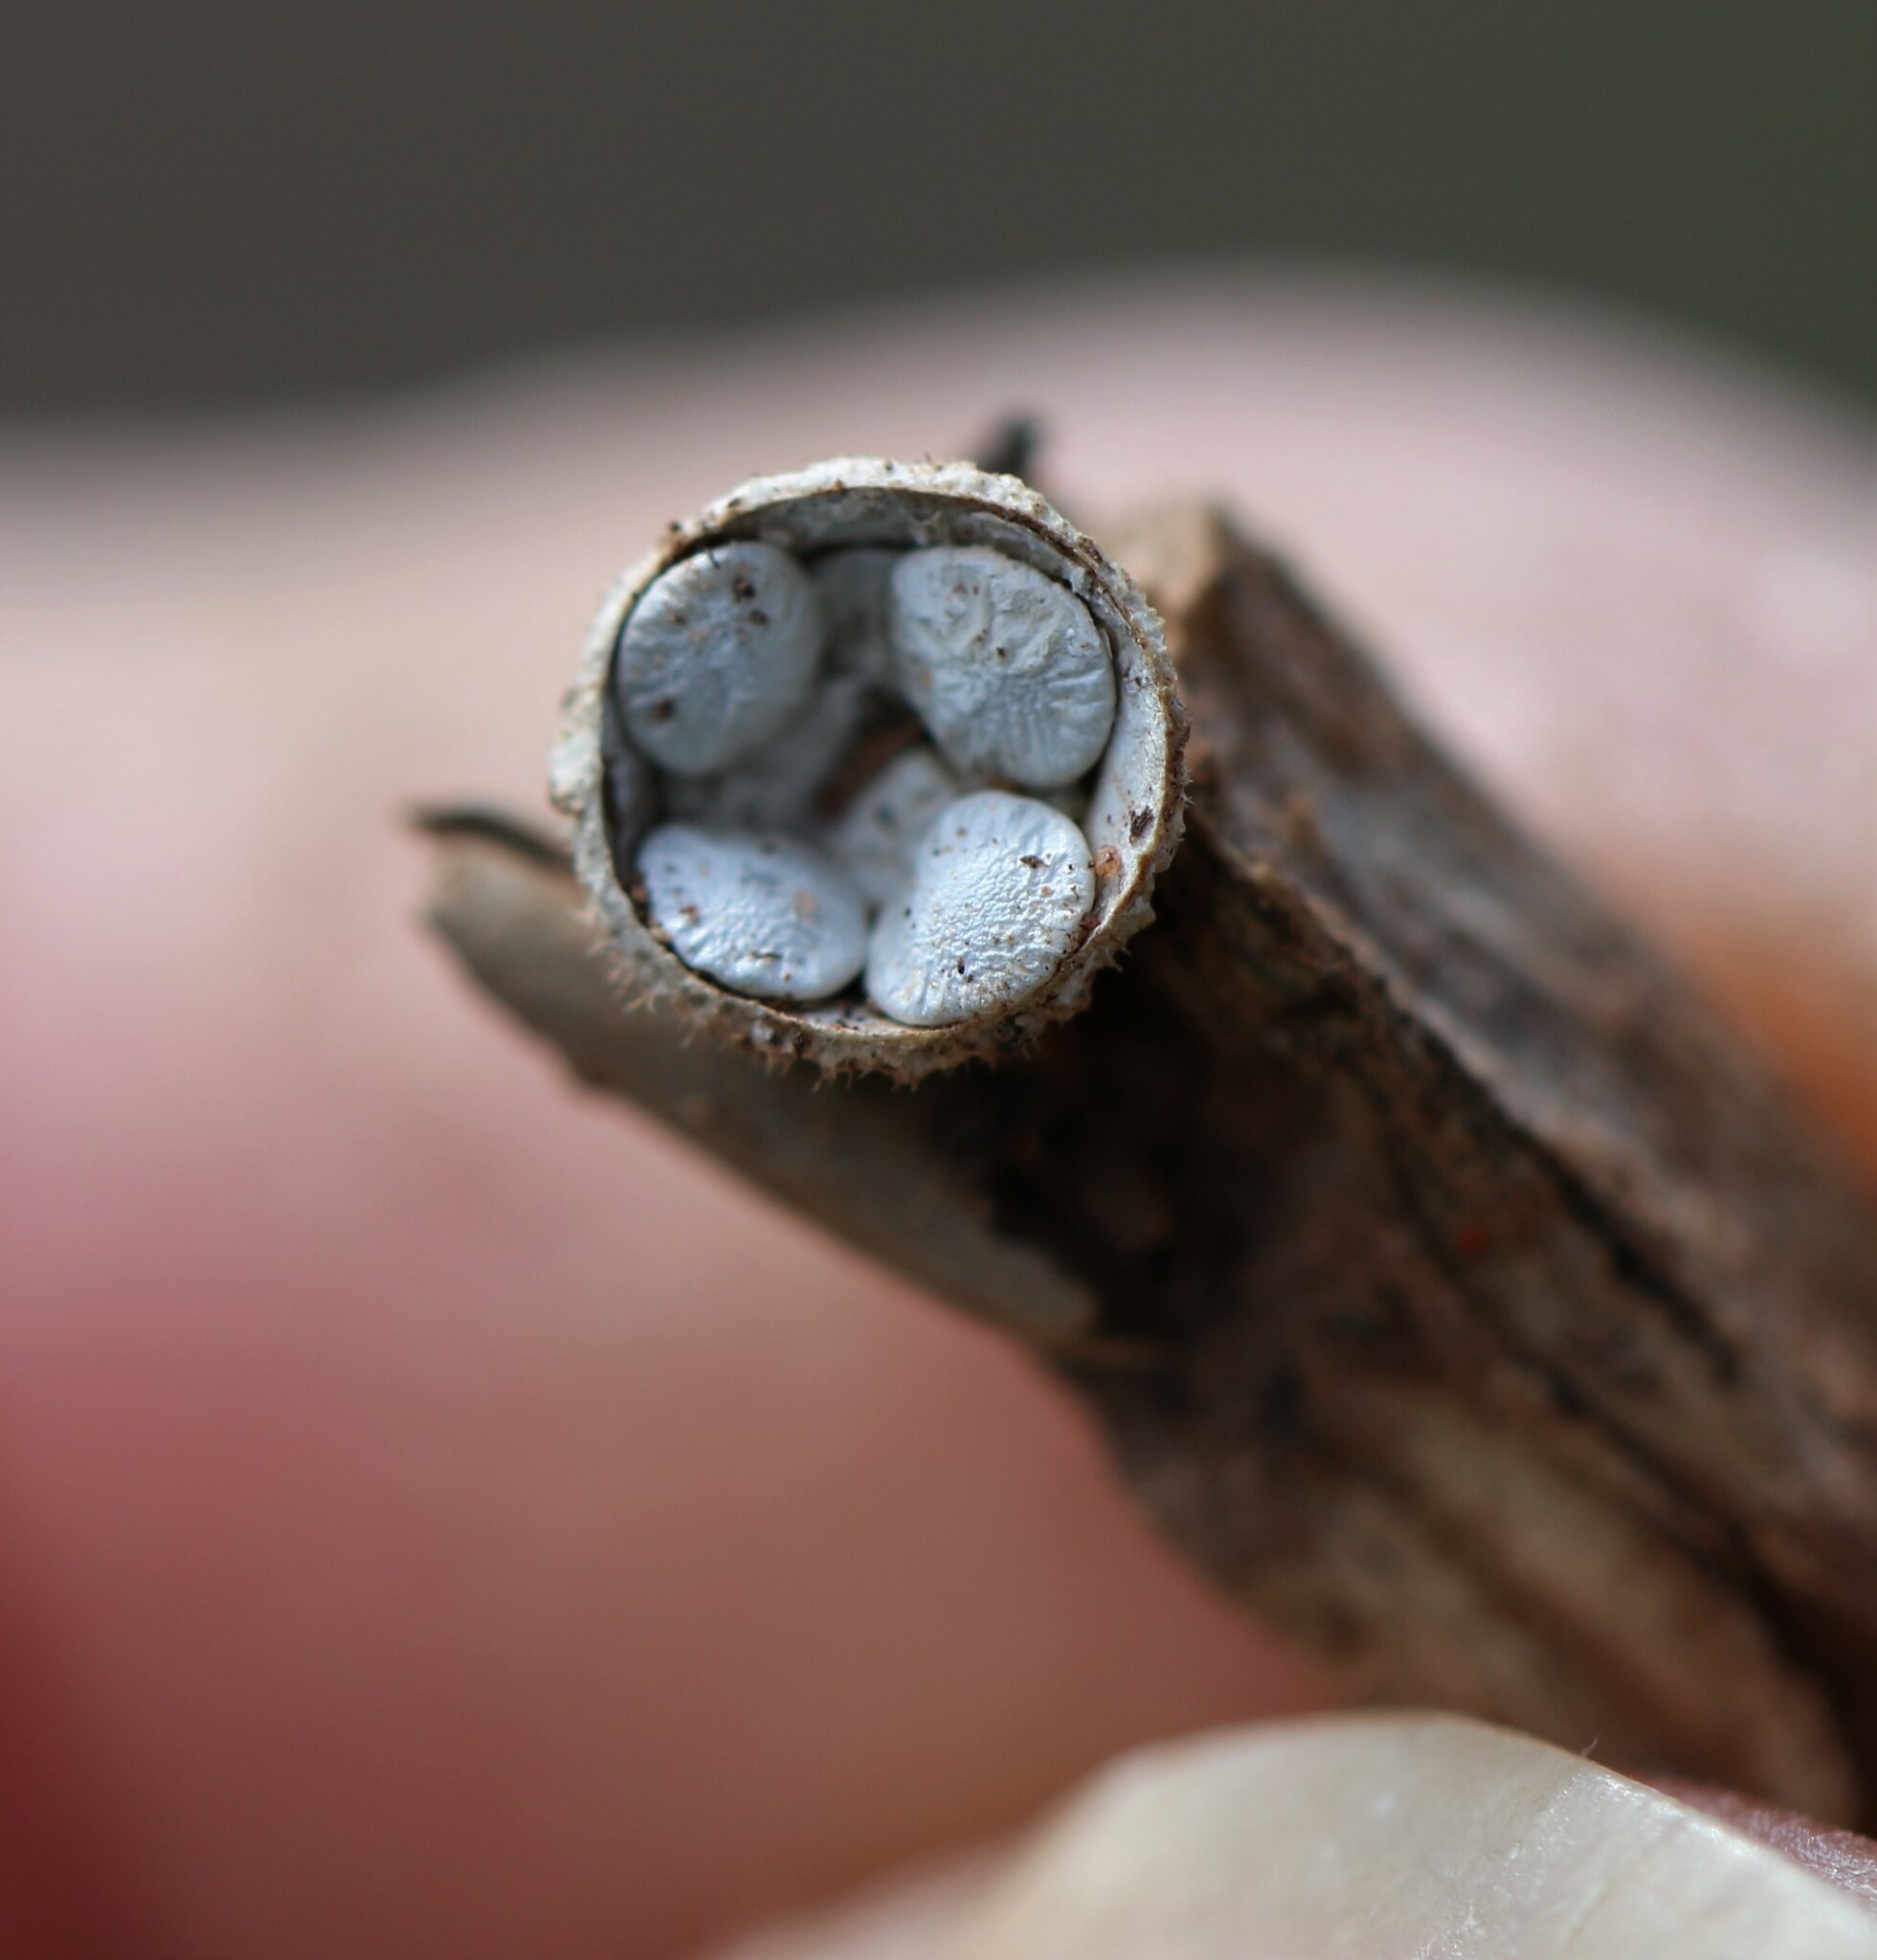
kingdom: Fungi
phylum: Basidiomycota
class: Agaricomycetes
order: Agaricales
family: Nidulariaceae
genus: Crucibulum
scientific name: Crucibulum laeve
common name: Common bird's nest
